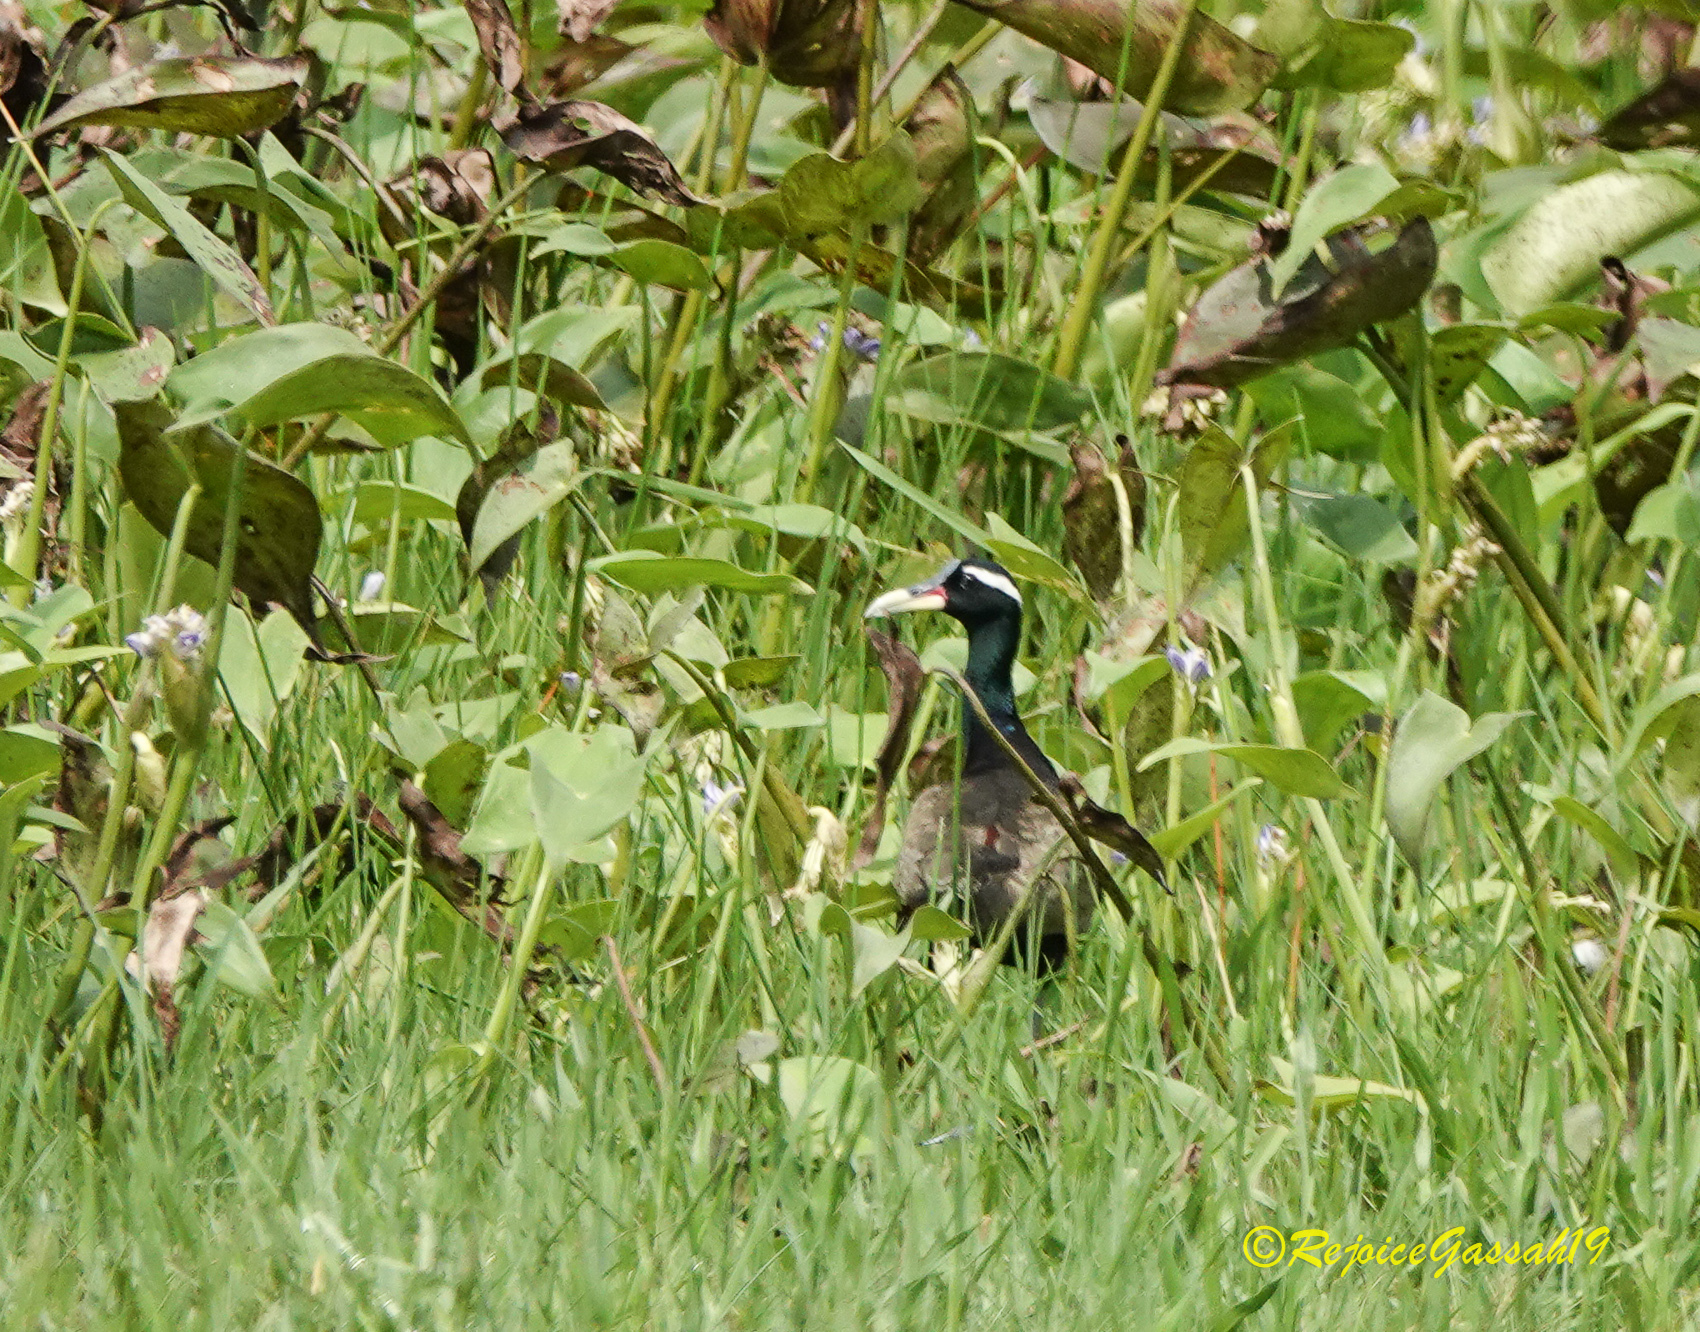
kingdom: Animalia
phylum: Chordata
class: Aves
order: Charadriiformes
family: Jacanidae
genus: Metopidius
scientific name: Metopidius indicus
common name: Bronze-winged jacana
